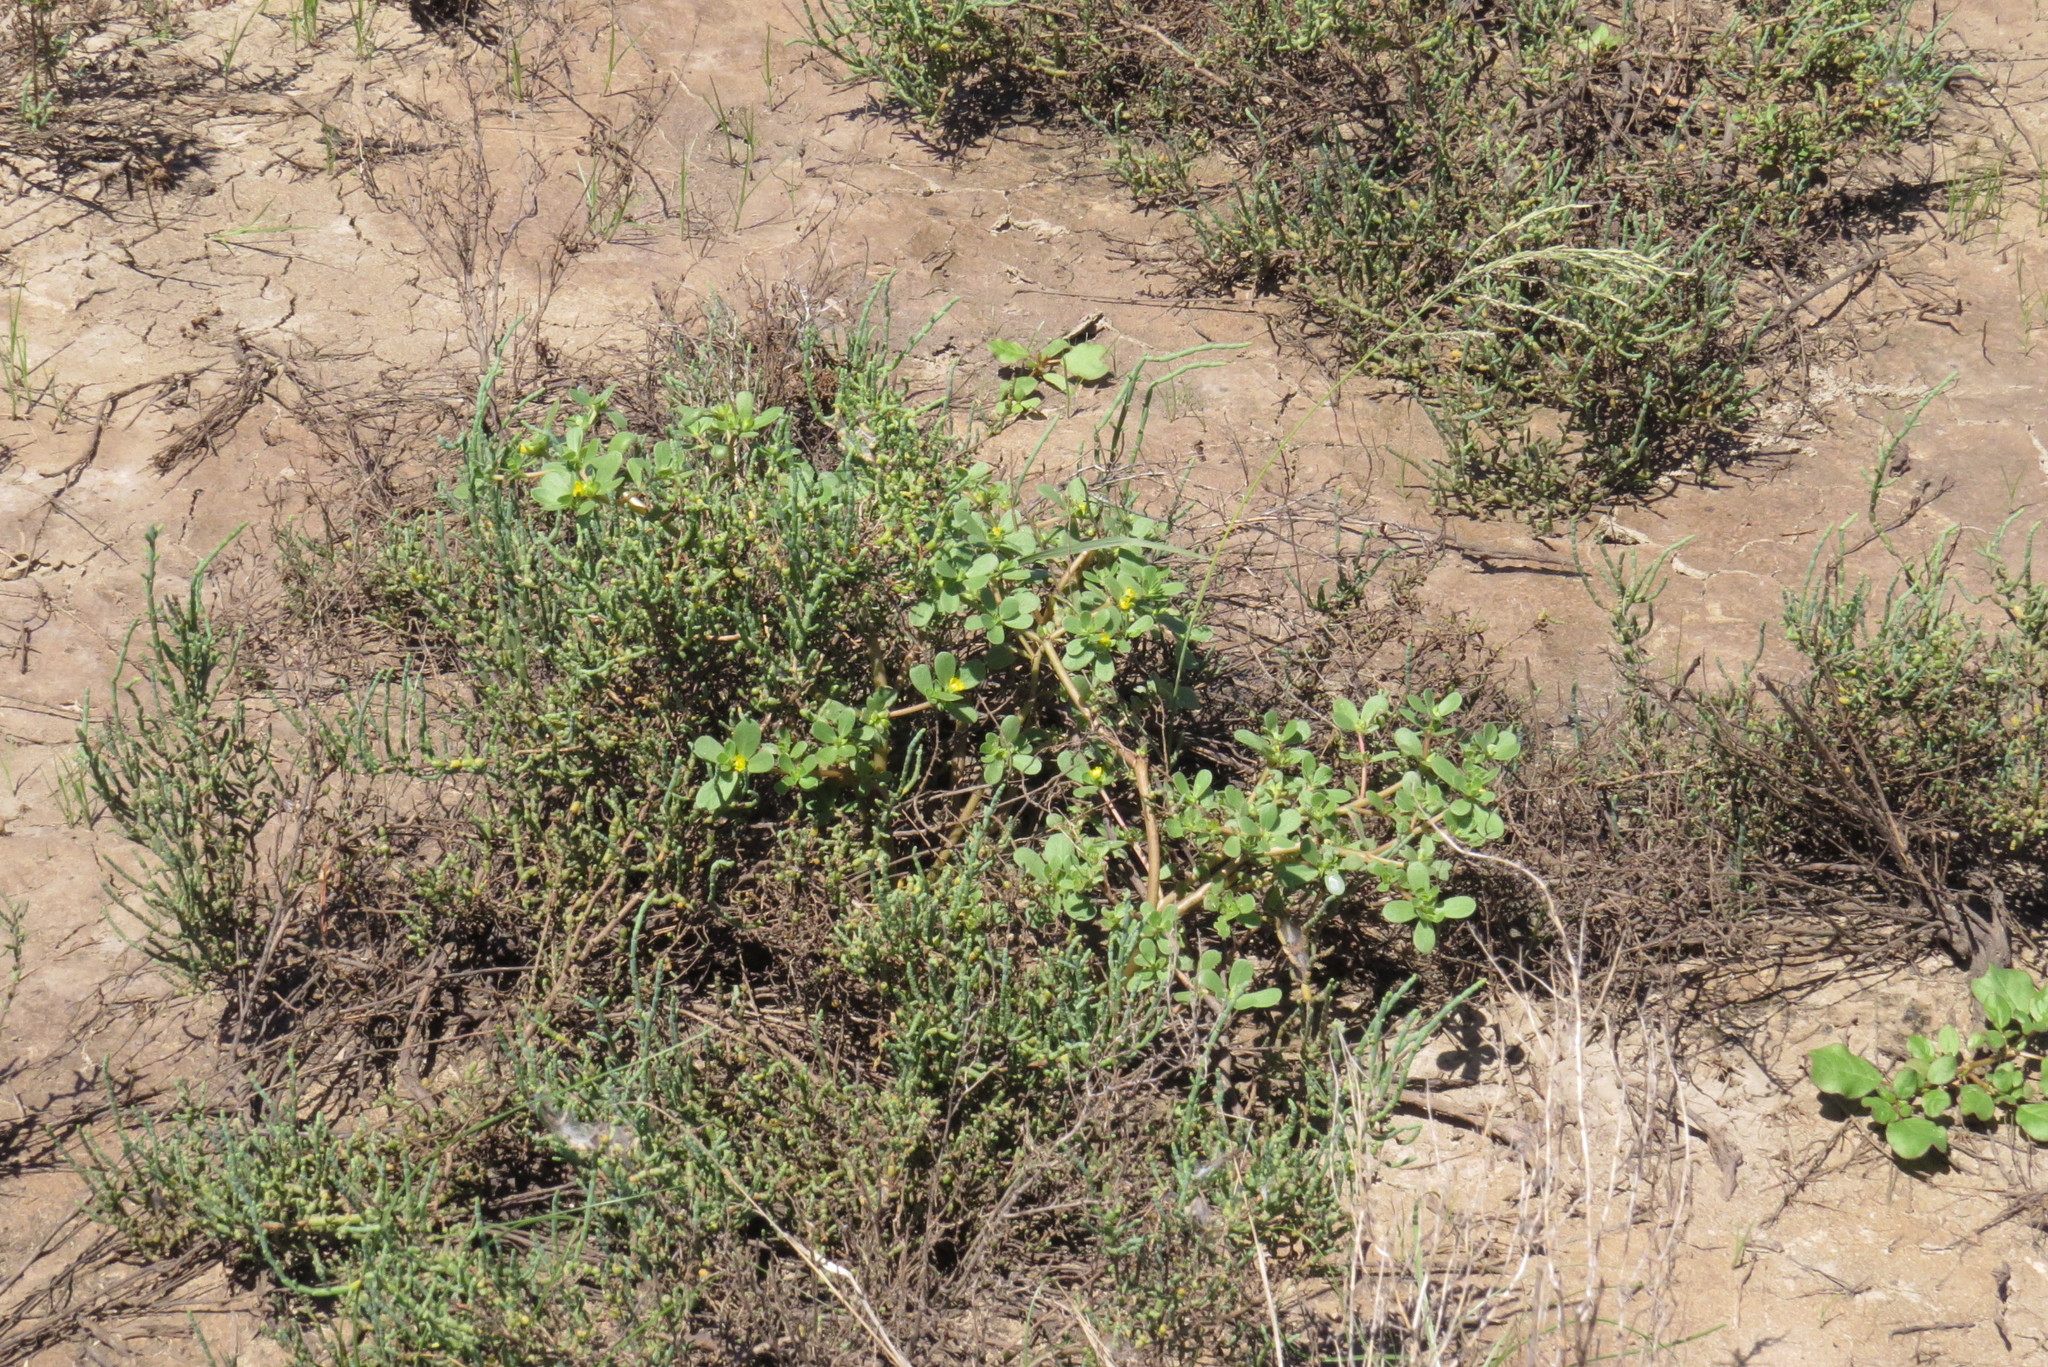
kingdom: Plantae
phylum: Tracheophyta
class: Magnoliopsida
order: Caryophyllales
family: Portulacaceae
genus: Portulaca
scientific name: Portulaca oleracea
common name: Common purslane
